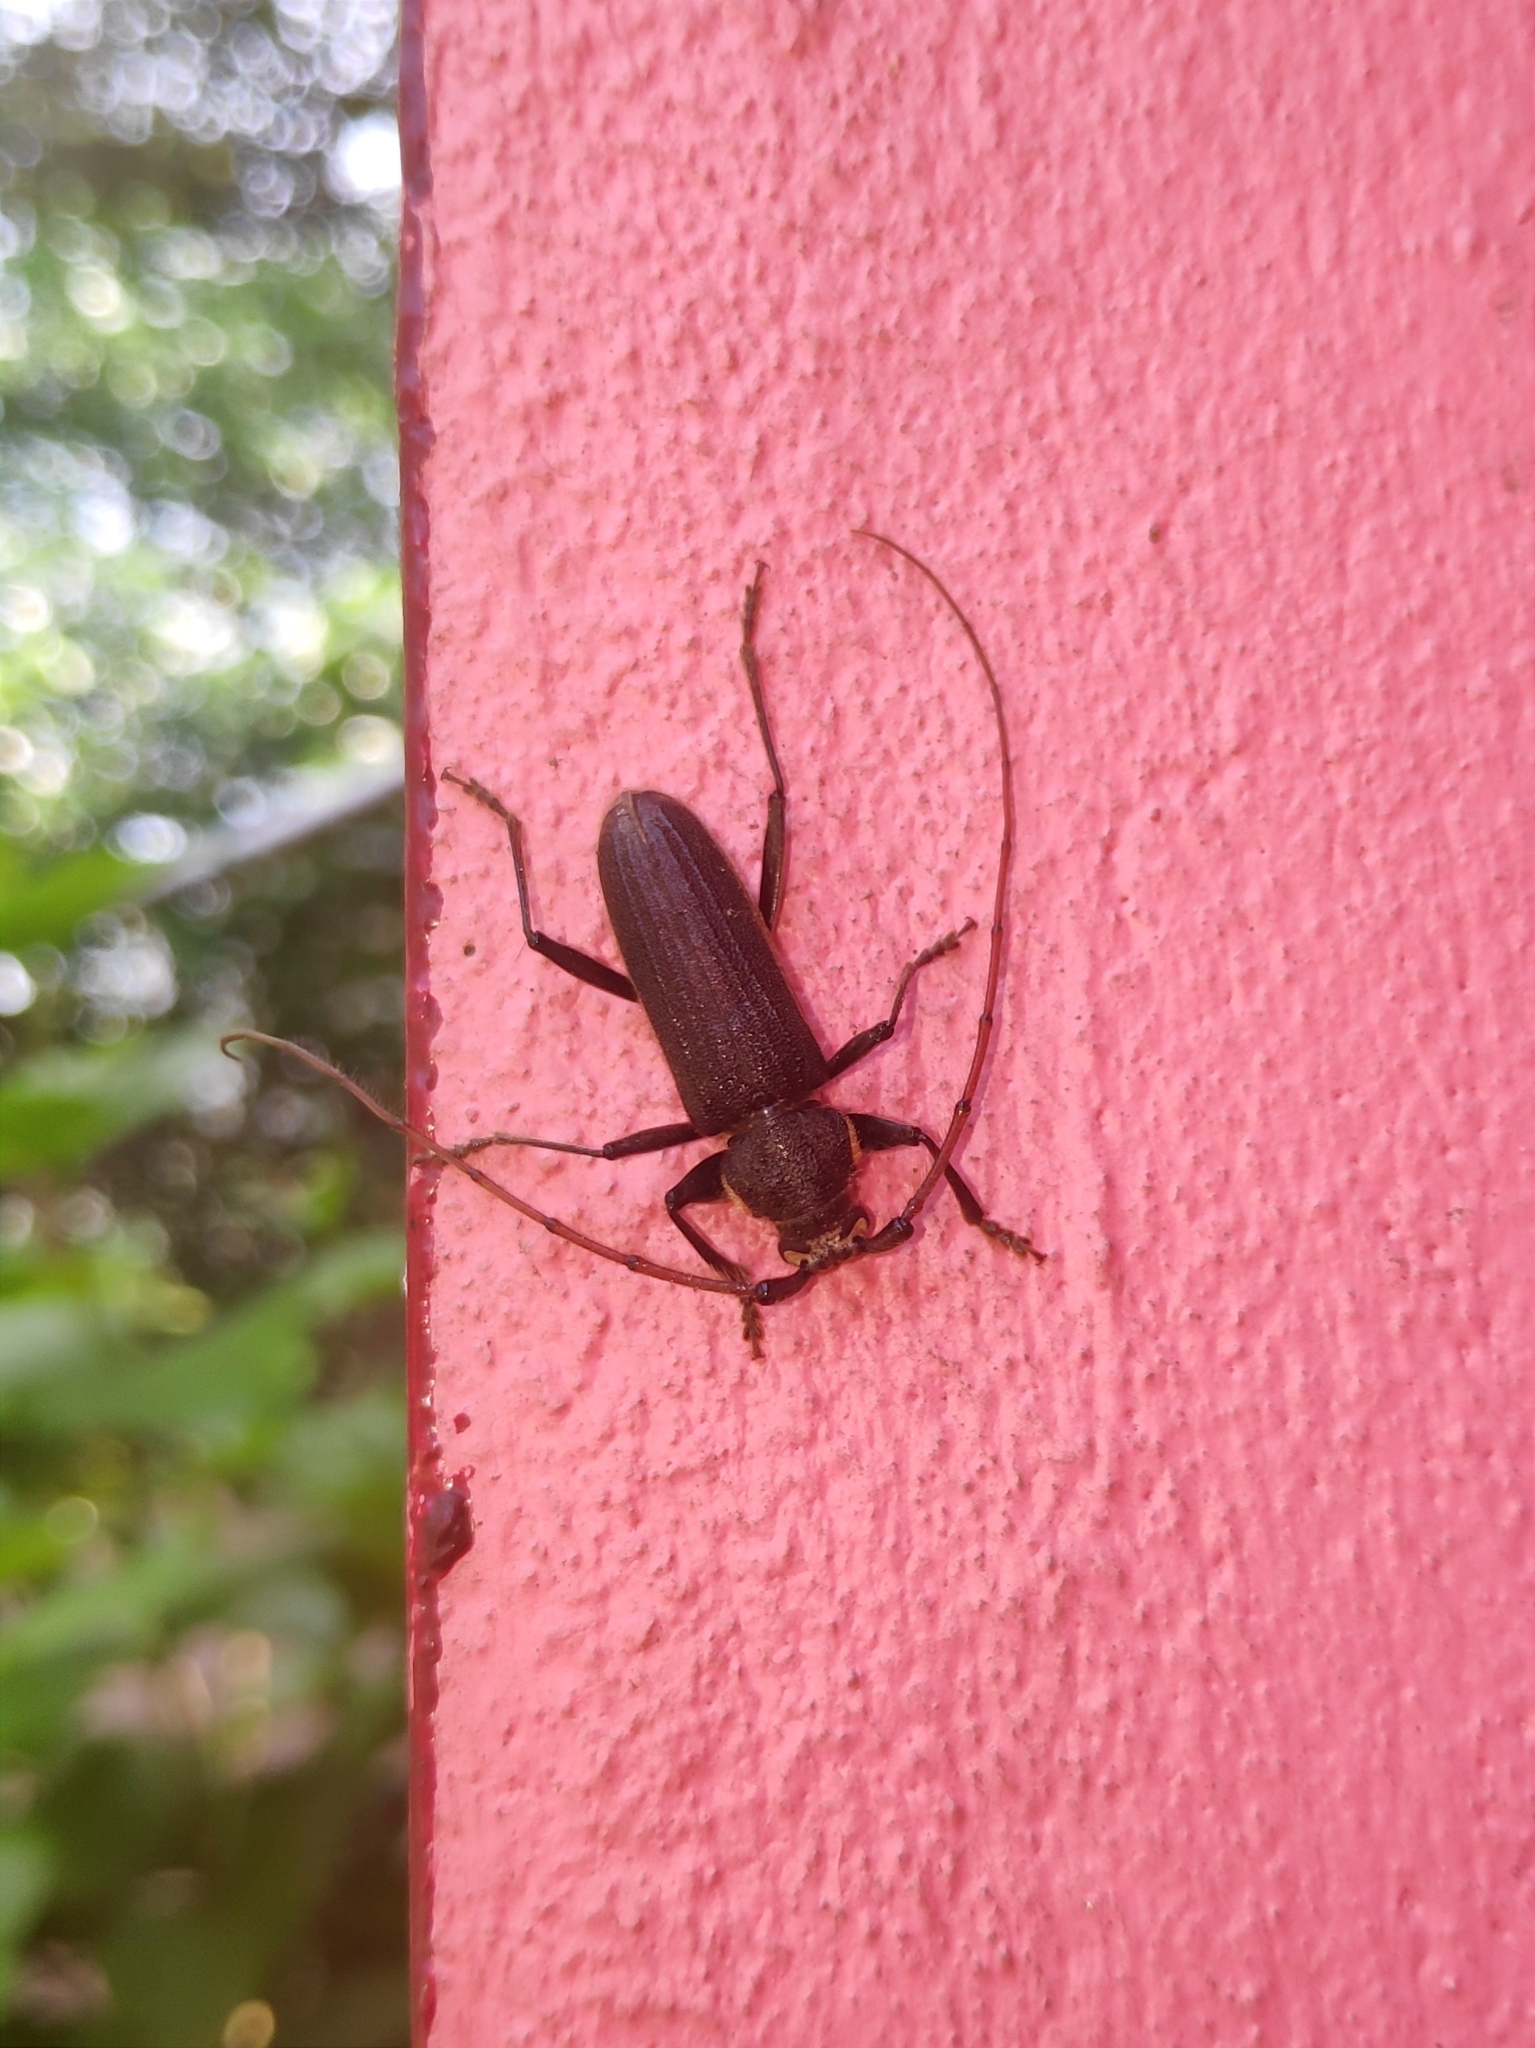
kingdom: Animalia
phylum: Arthropoda
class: Insecta
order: Coleoptera
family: Cerambycidae
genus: Stromatium
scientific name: Stromatium barbatum
